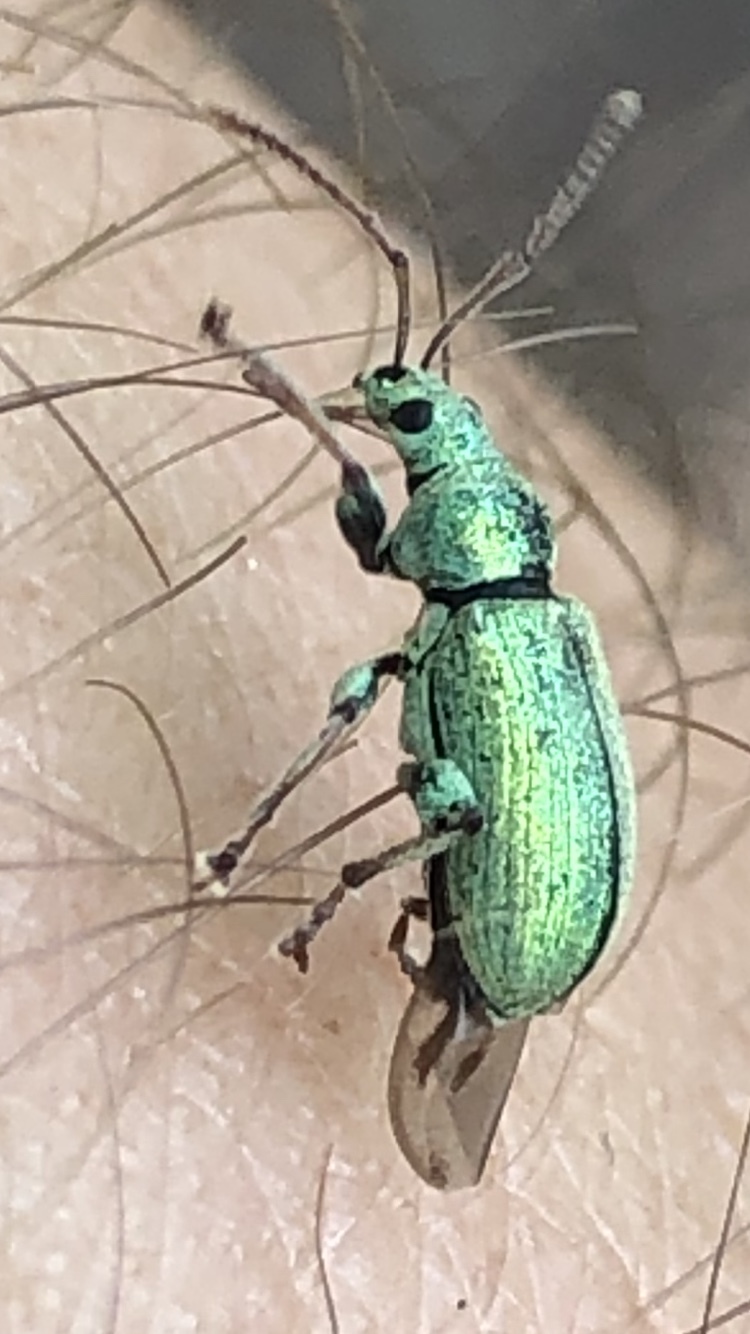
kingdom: Animalia
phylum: Arthropoda
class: Insecta
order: Coleoptera
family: Curculionidae
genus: Phyllobius
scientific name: Phyllobius argentatus
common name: Silver-green leaf weevil
